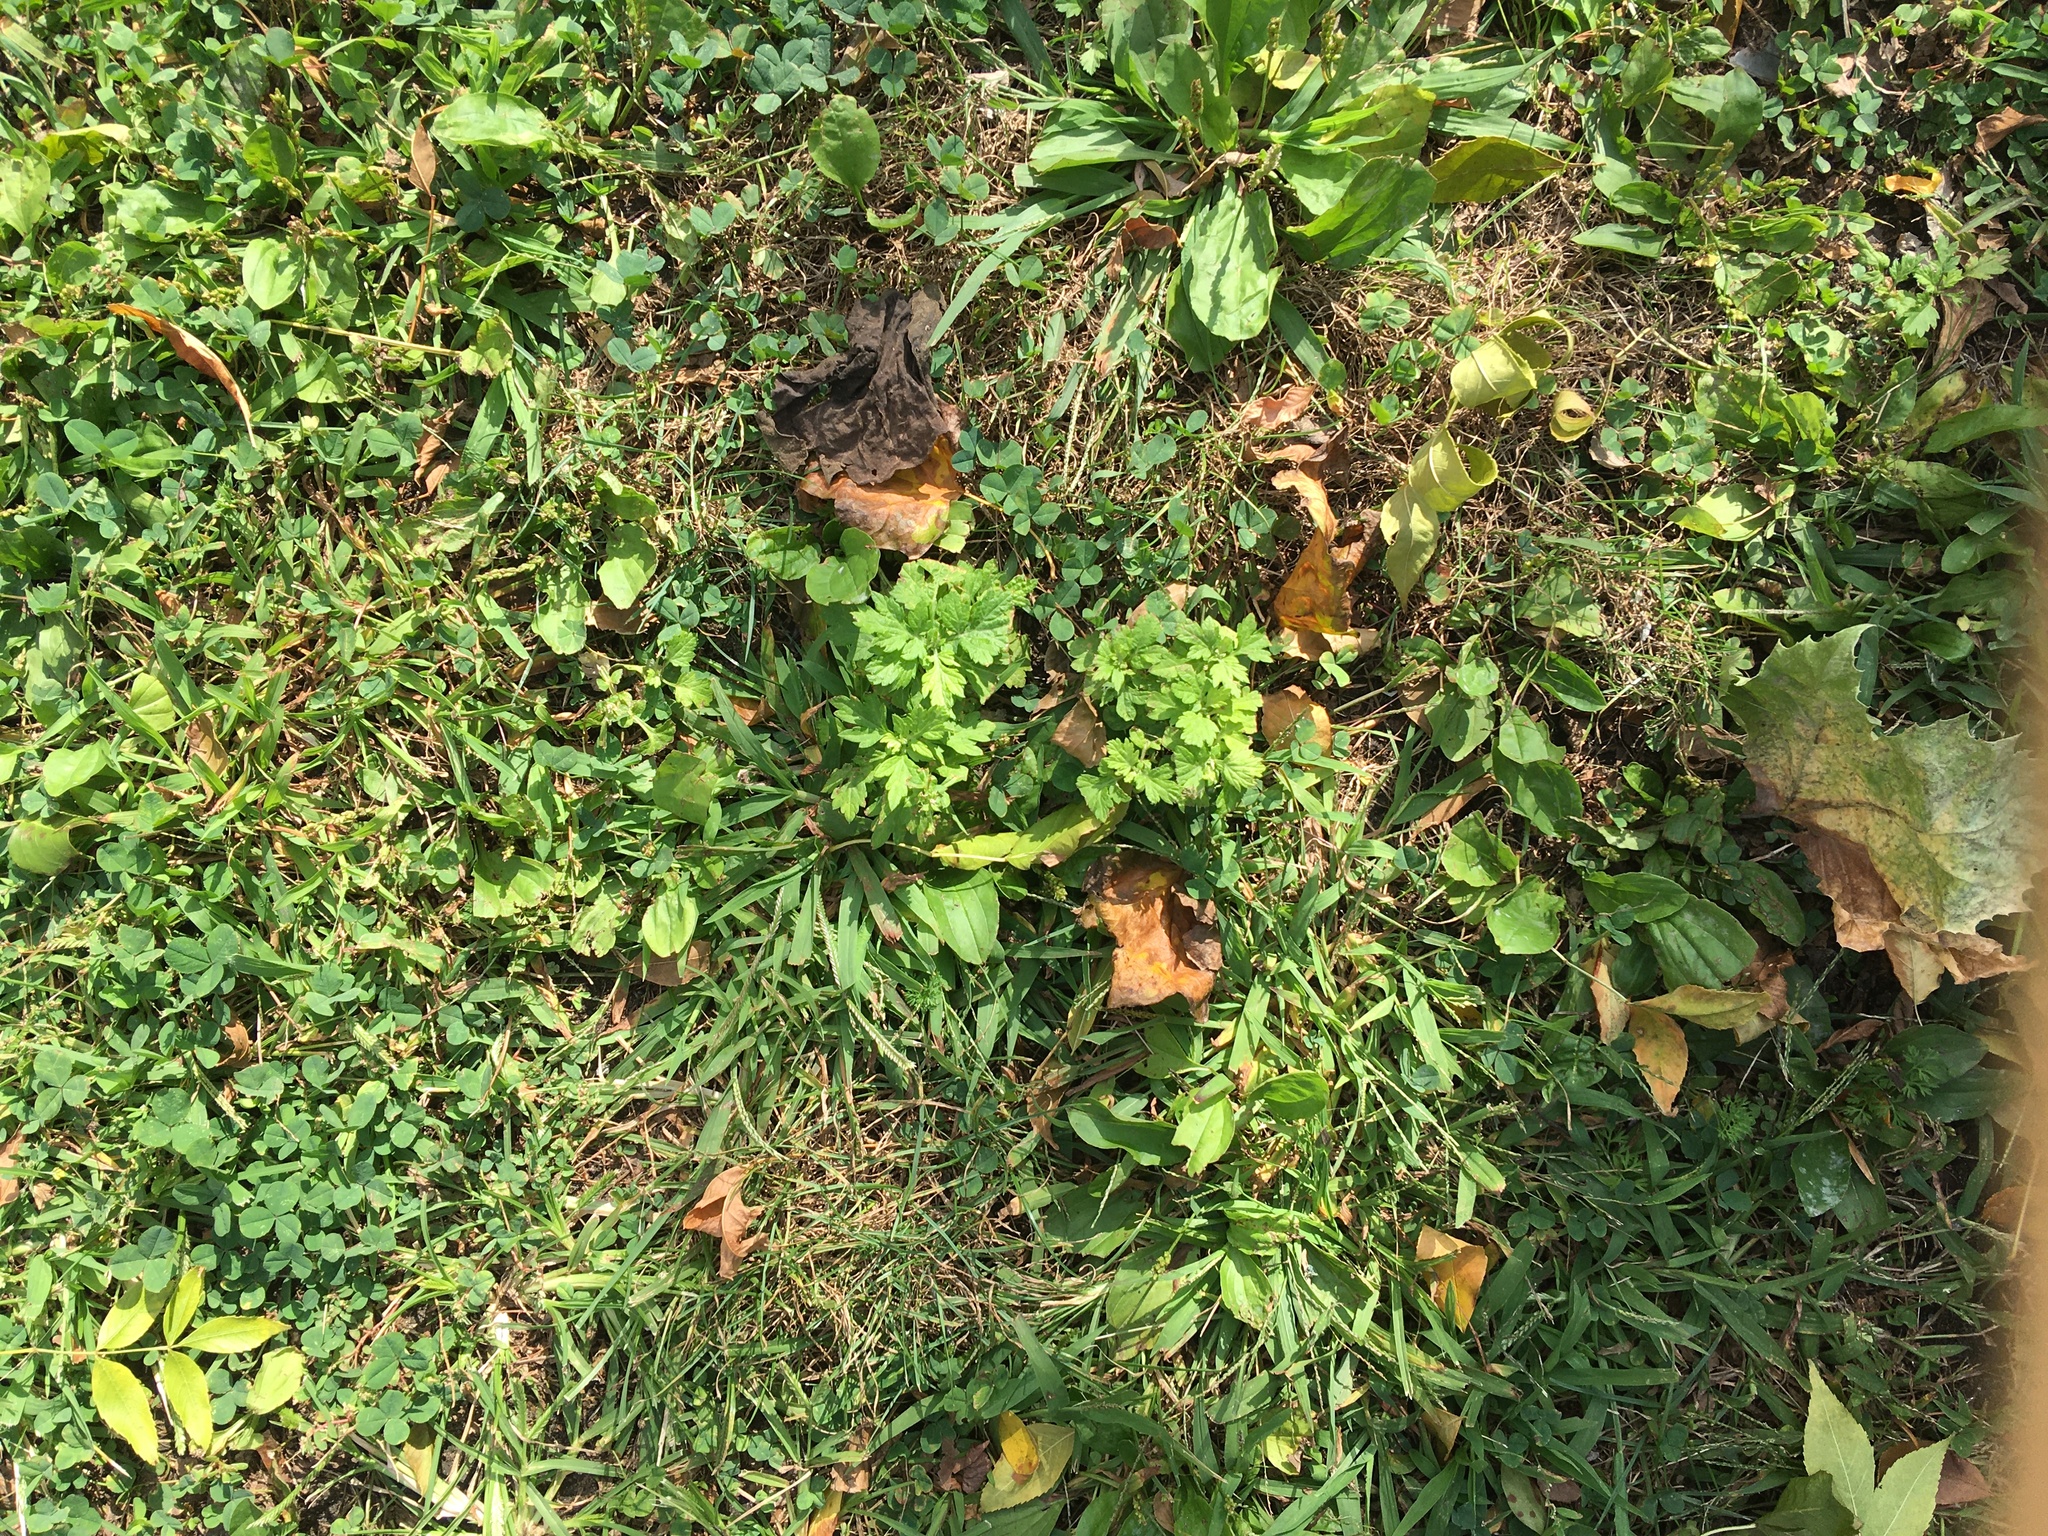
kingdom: Plantae
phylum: Tracheophyta
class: Magnoliopsida
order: Asterales
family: Asteraceae
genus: Artemisia
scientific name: Artemisia vulgaris
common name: Mugwort
